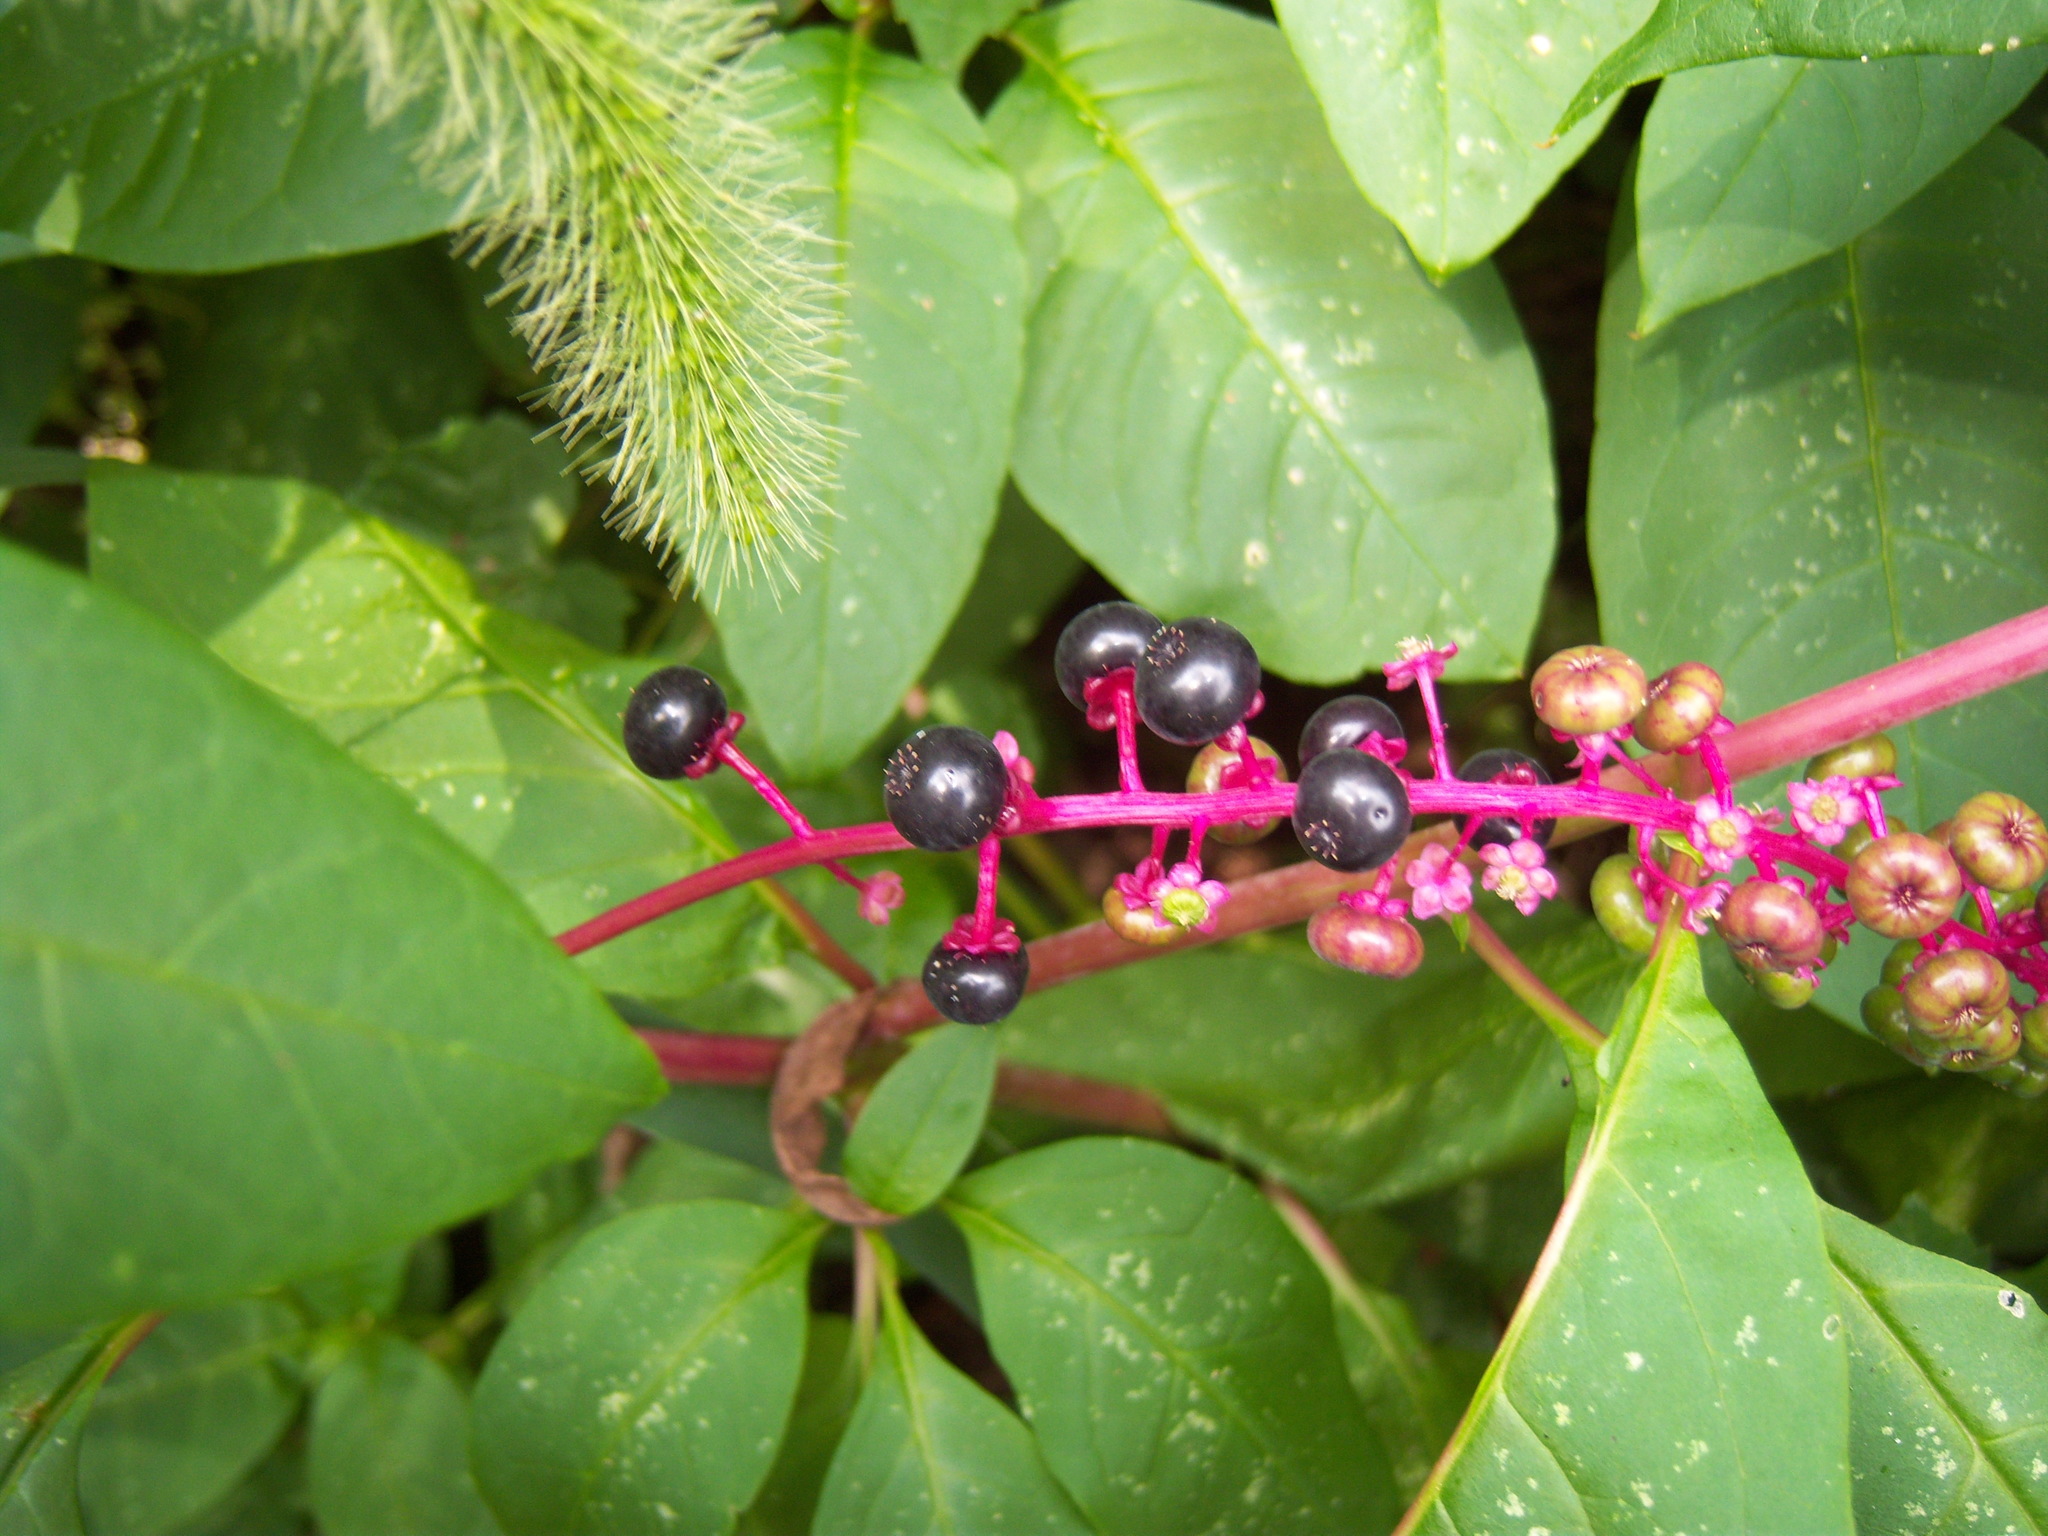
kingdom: Plantae
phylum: Tracheophyta
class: Magnoliopsida
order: Caryophyllales
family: Phytolaccaceae
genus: Phytolacca
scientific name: Phytolacca americana
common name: American pokeweed
